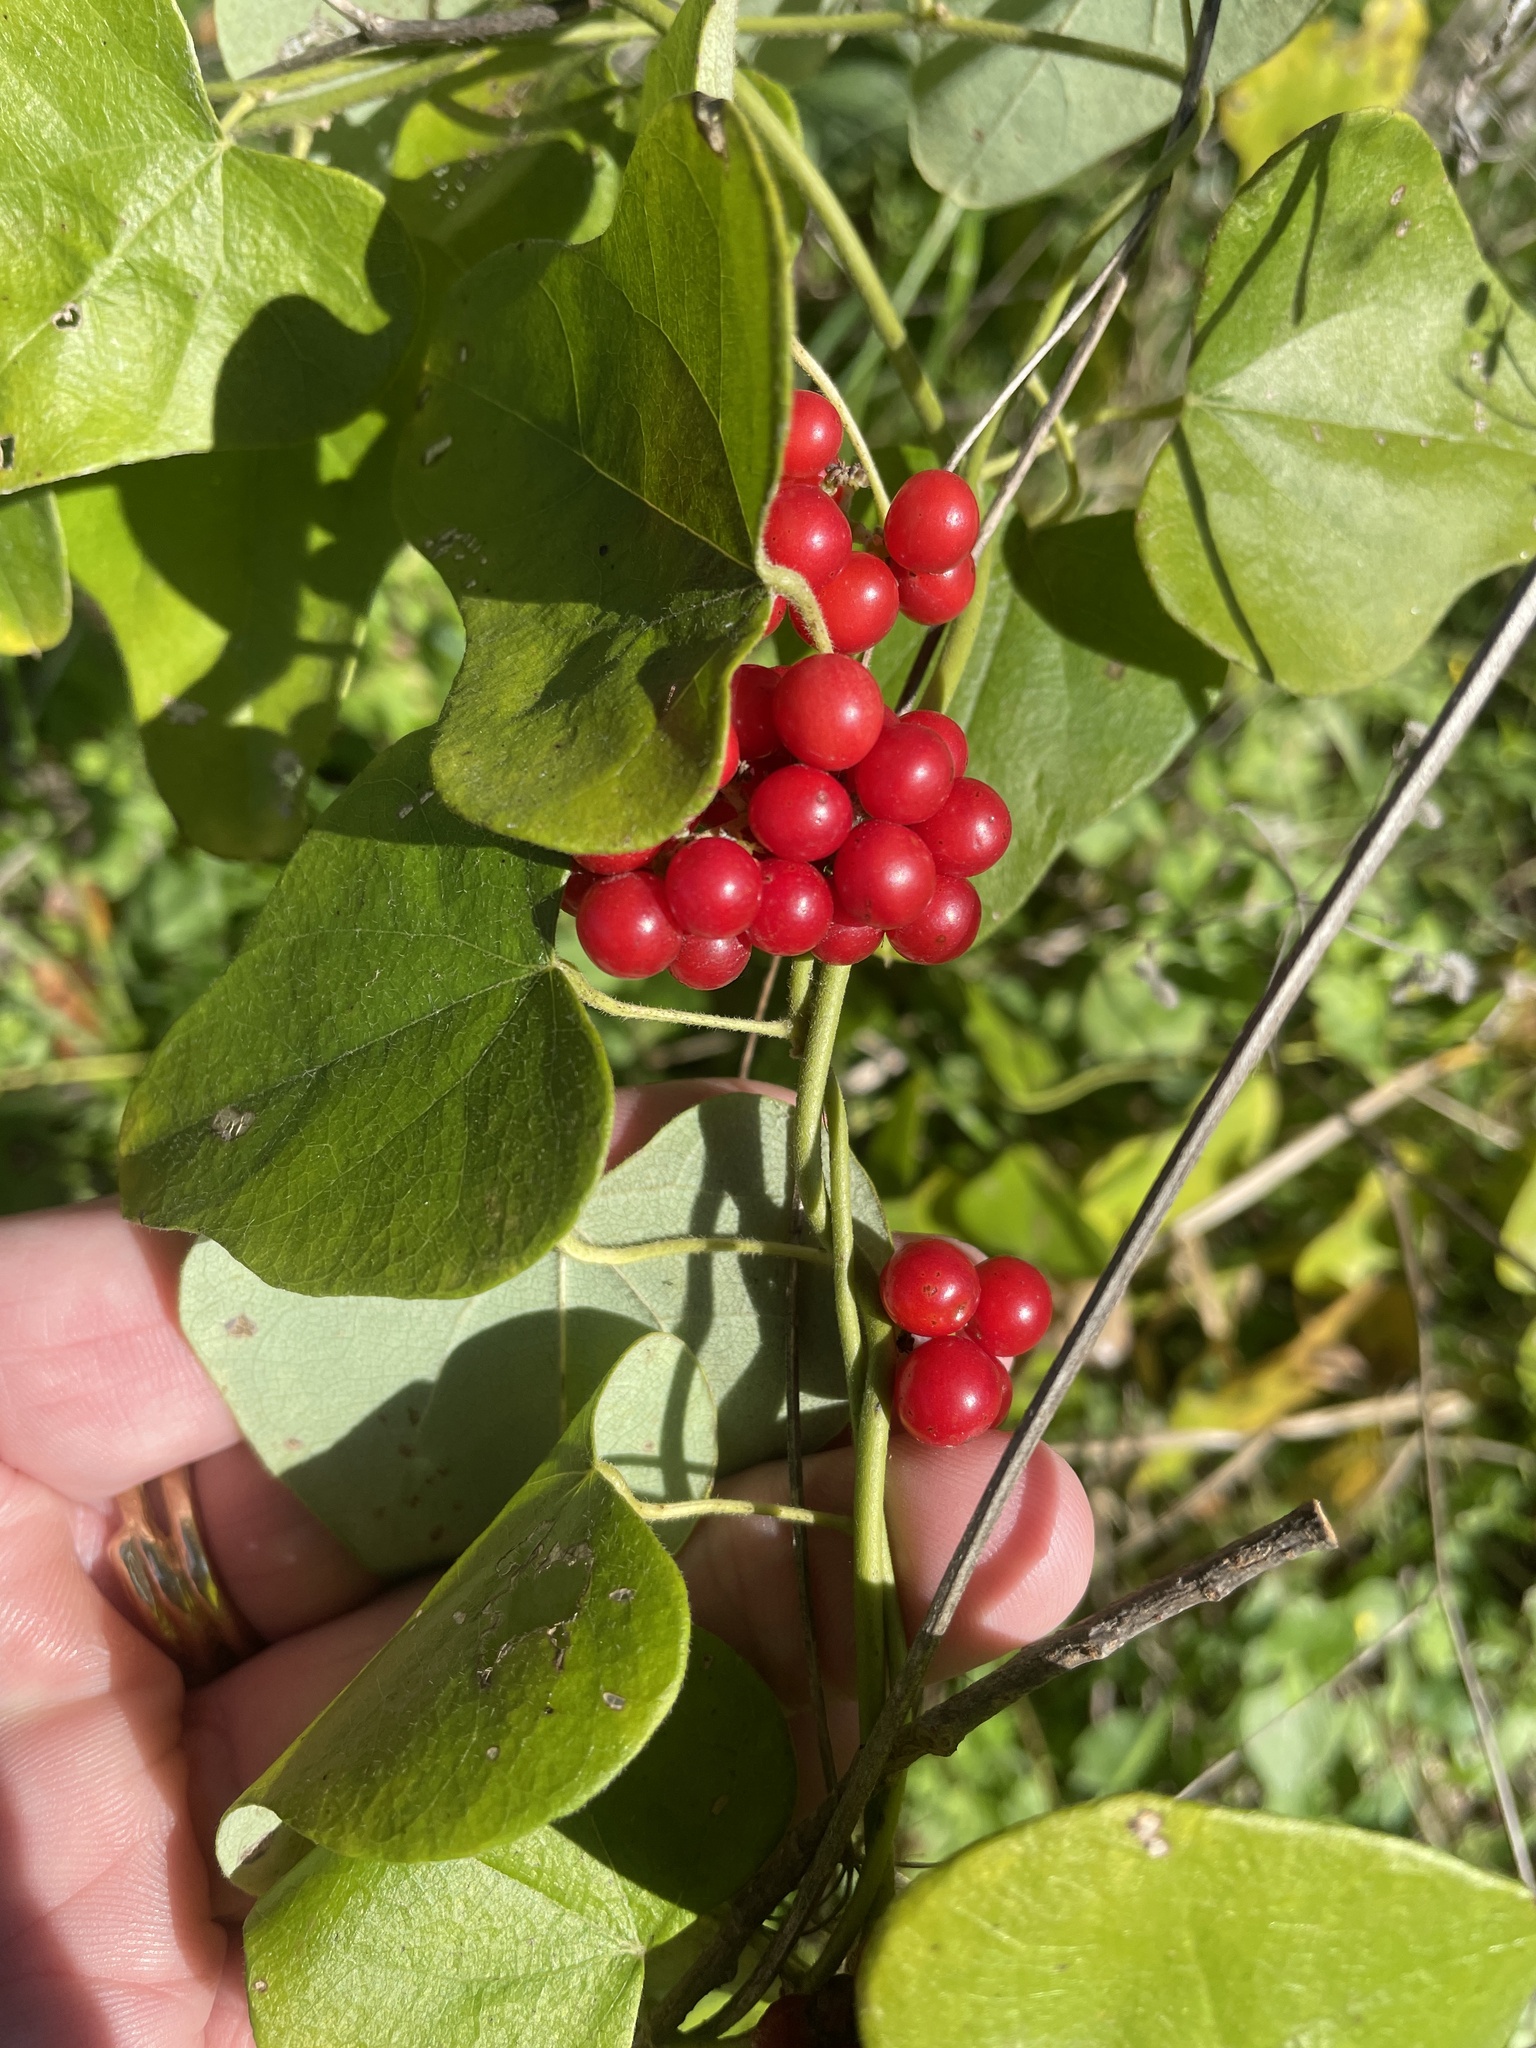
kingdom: Plantae
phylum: Tracheophyta
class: Magnoliopsida
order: Ranunculales
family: Menispermaceae
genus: Cocculus
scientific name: Cocculus carolinus
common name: Carolina moonseed
